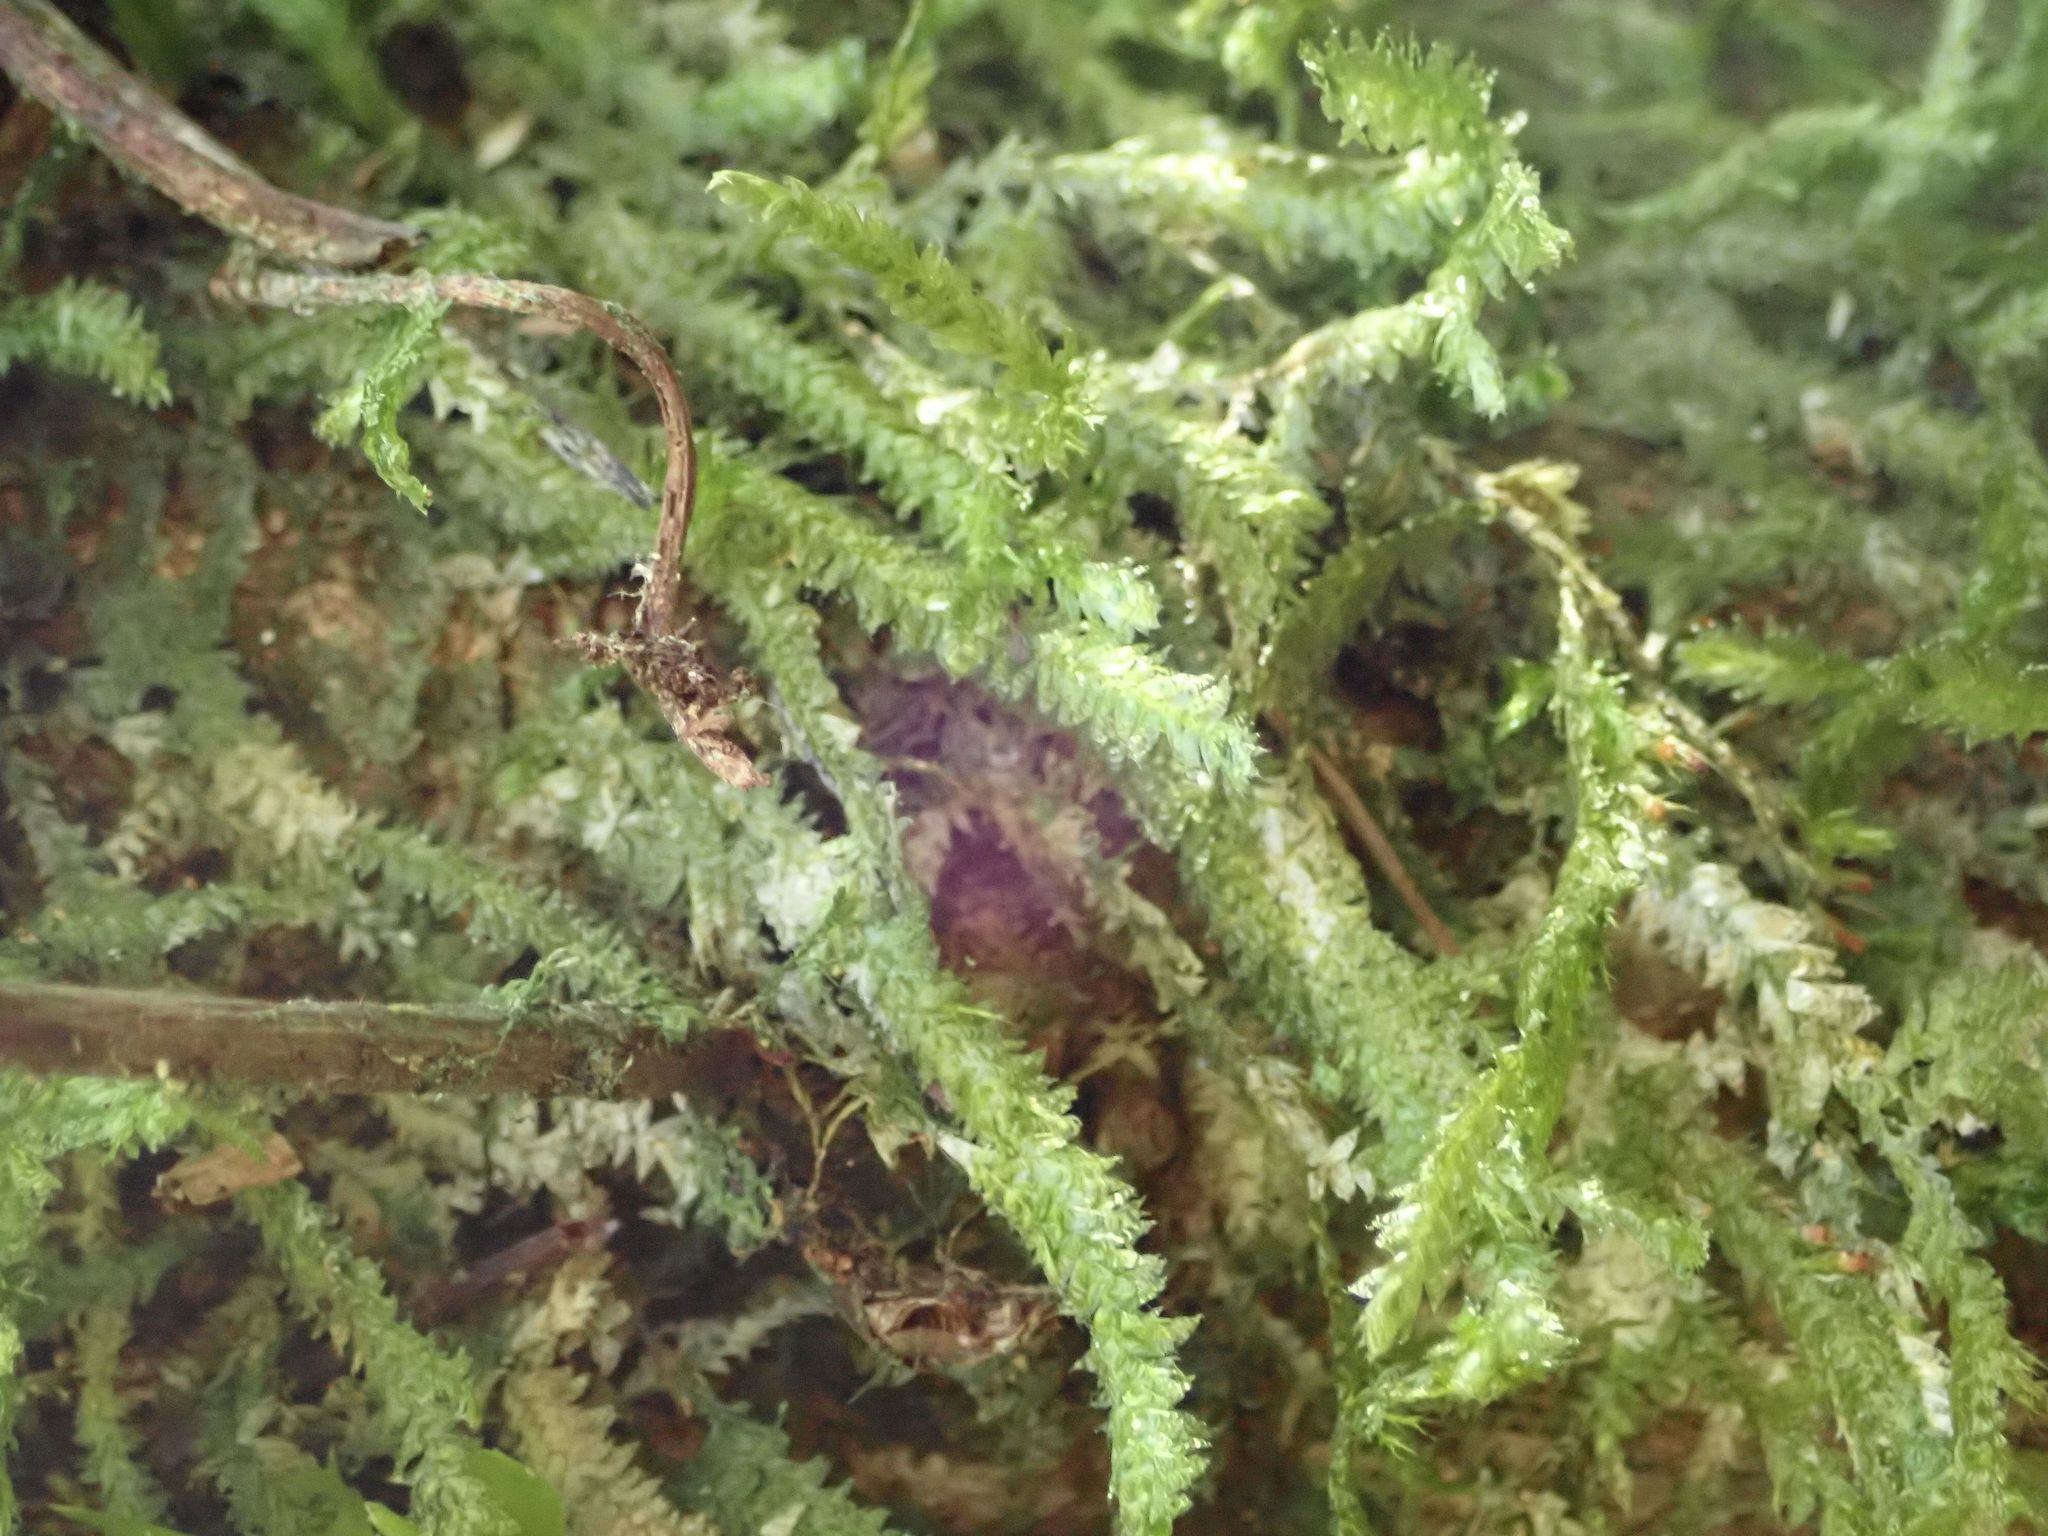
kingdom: Plantae
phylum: Bryophyta
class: Bryopsida
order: Hypnales
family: Neckeraceae
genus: Alleniella
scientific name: Alleniella hymenodonta
